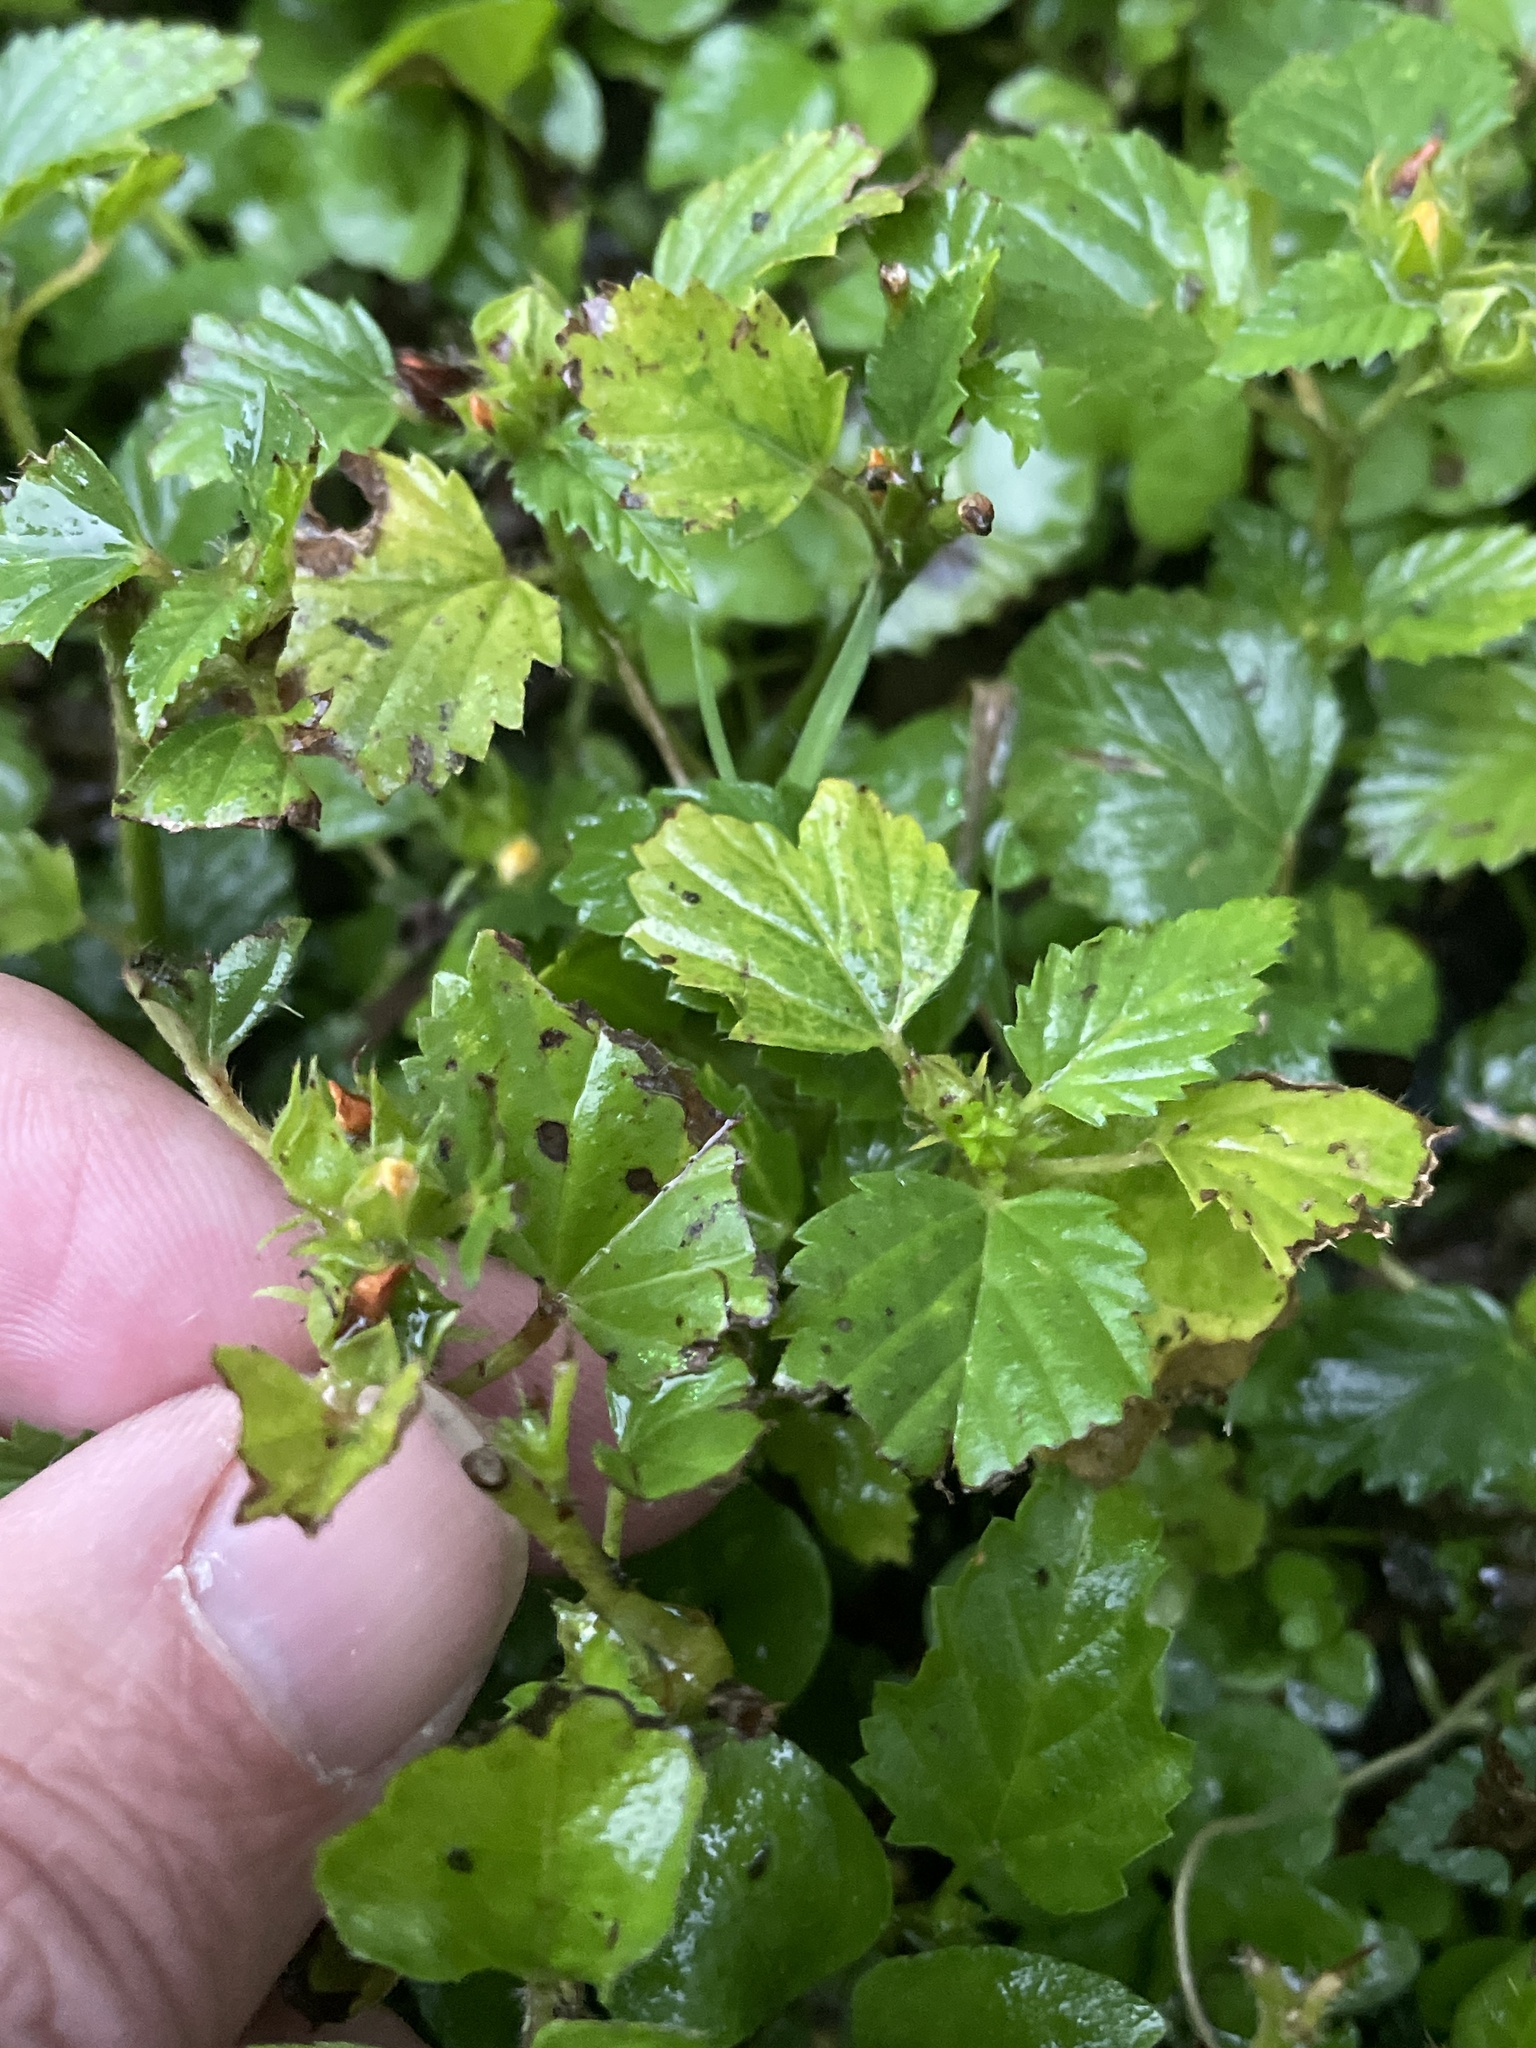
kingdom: Plantae
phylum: Tracheophyta
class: Magnoliopsida
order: Malvales
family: Malvaceae
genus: Malvastrum
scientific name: Malvastrum coromandelianum
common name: Threelobe false mallow
